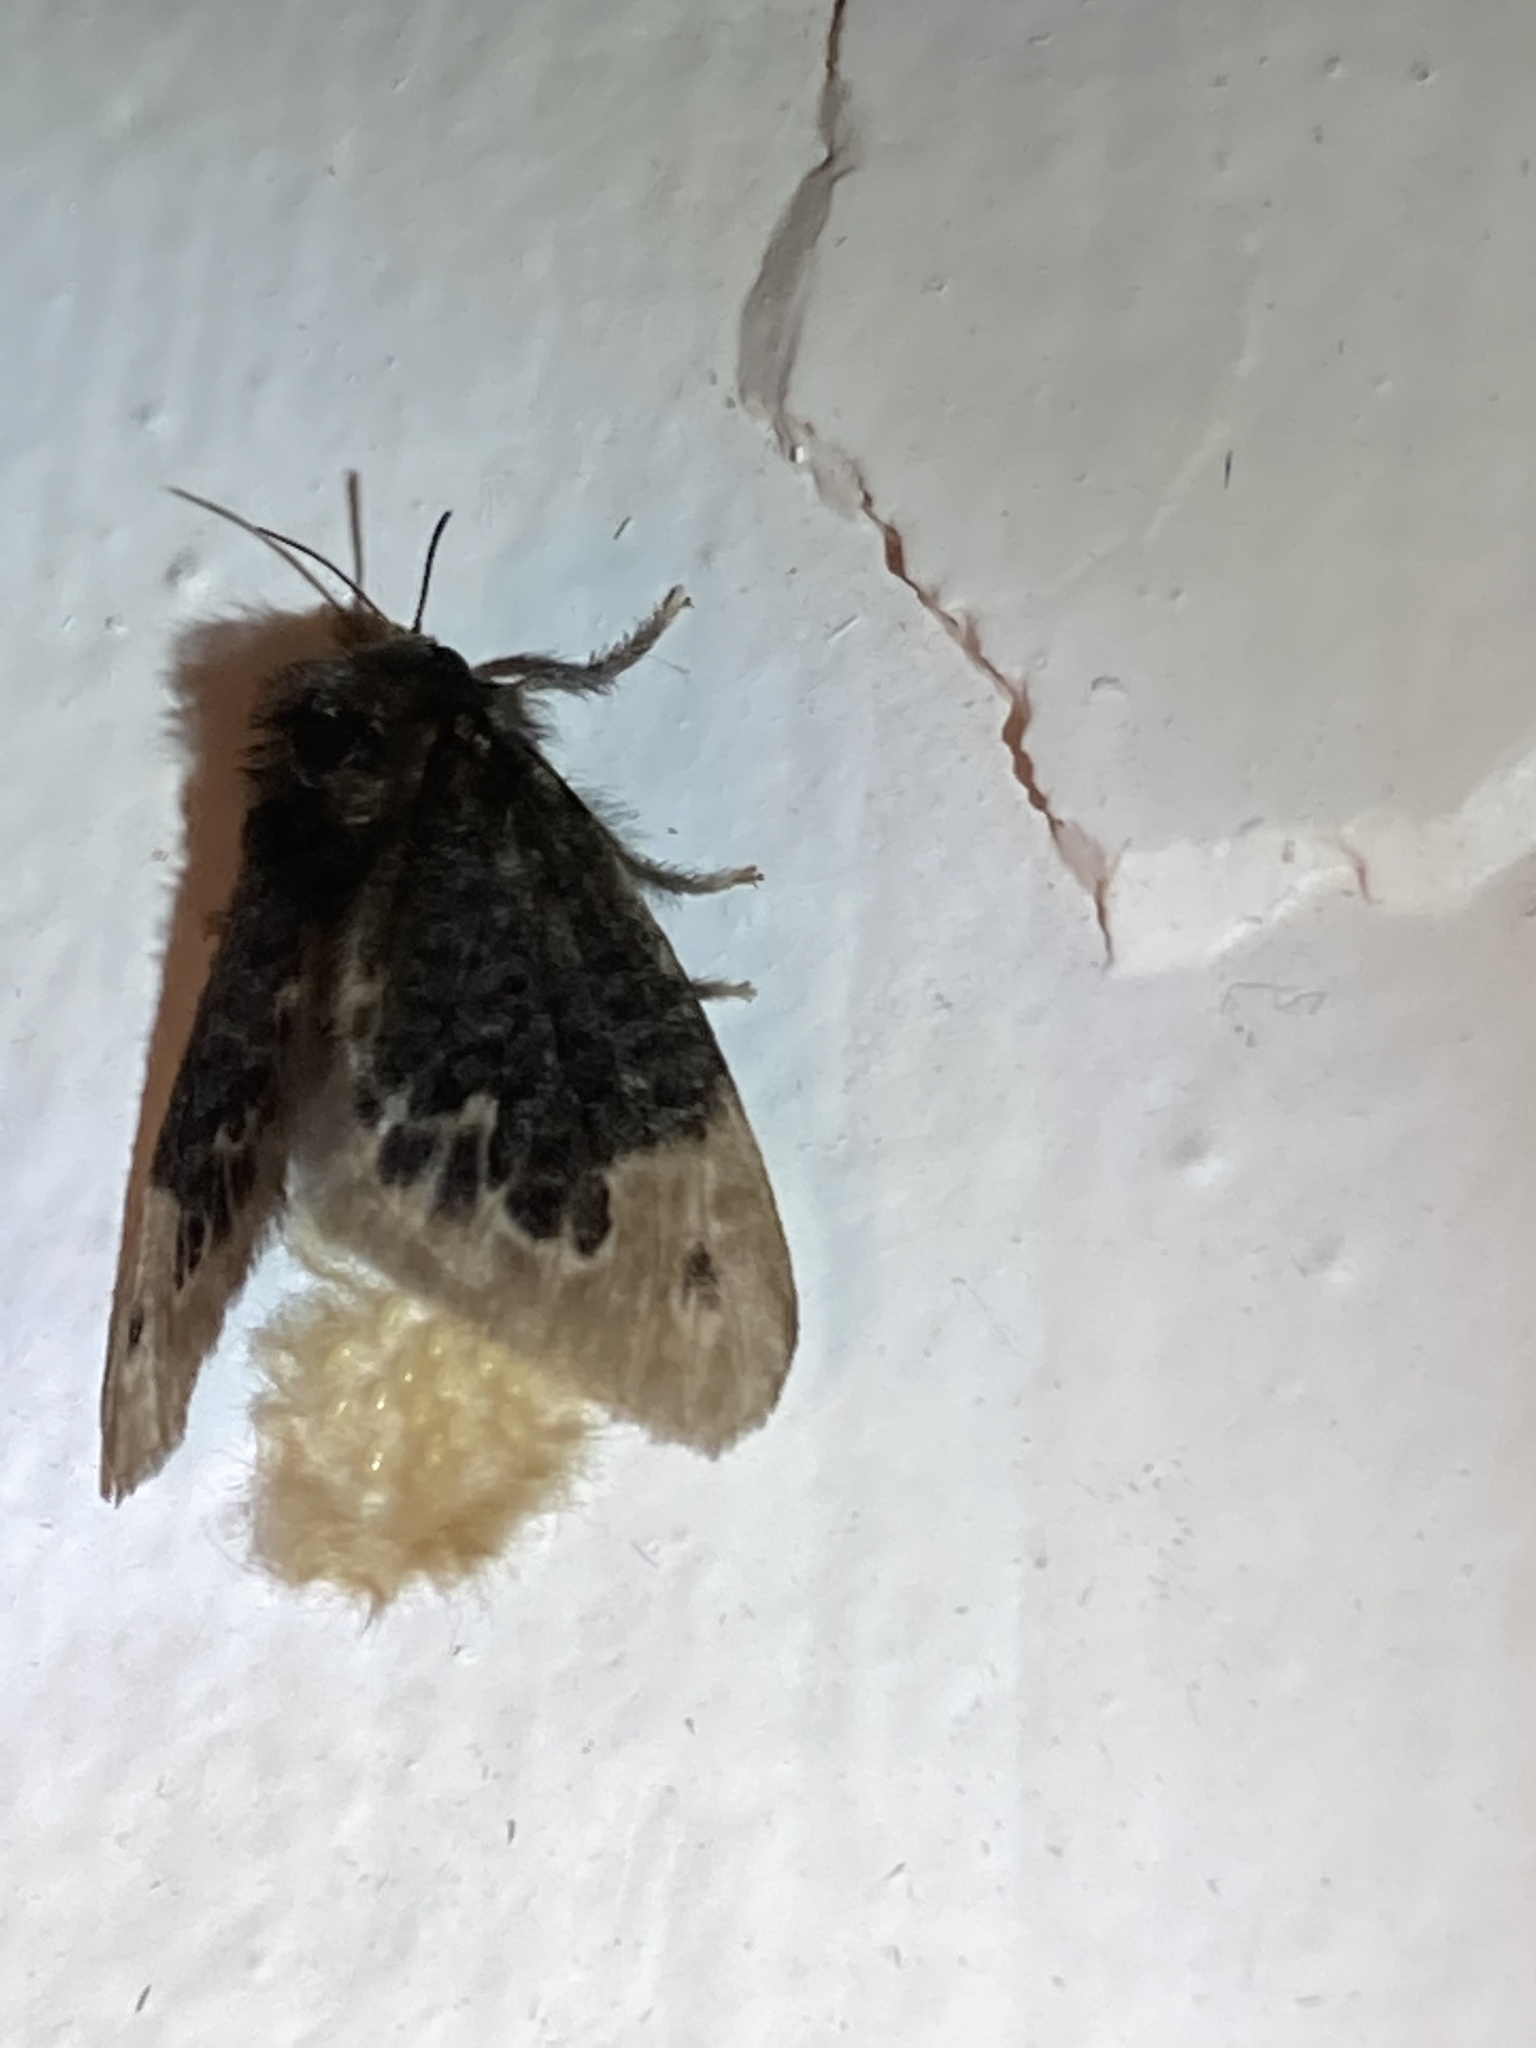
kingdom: Animalia
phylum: Arthropoda
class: Insecta
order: Lepidoptera
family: Megalopygidae
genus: Podalia
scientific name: Podalia amarga
